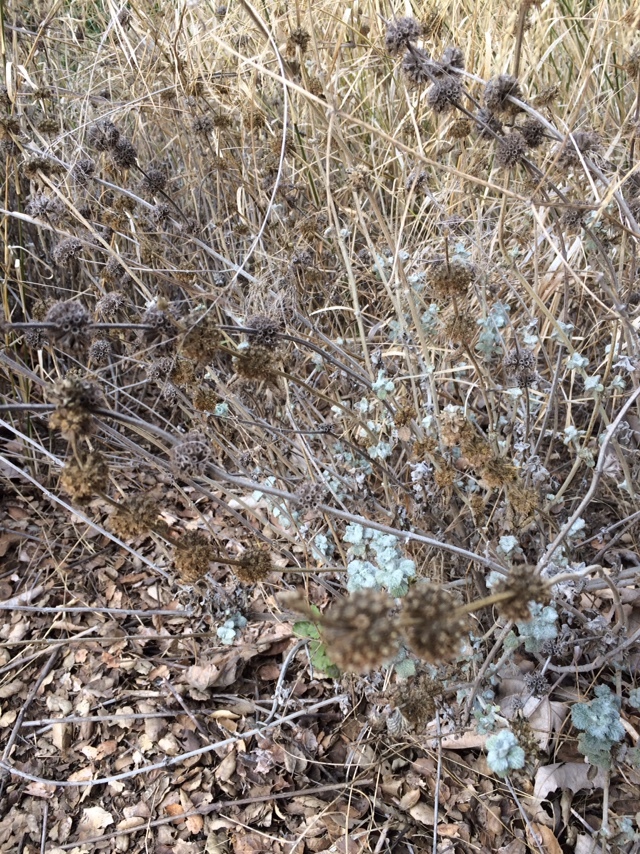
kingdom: Plantae
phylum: Tracheophyta
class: Magnoliopsida
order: Lamiales
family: Lamiaceae
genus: Marrubium
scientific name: Marrubium vulgare
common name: Horehound
